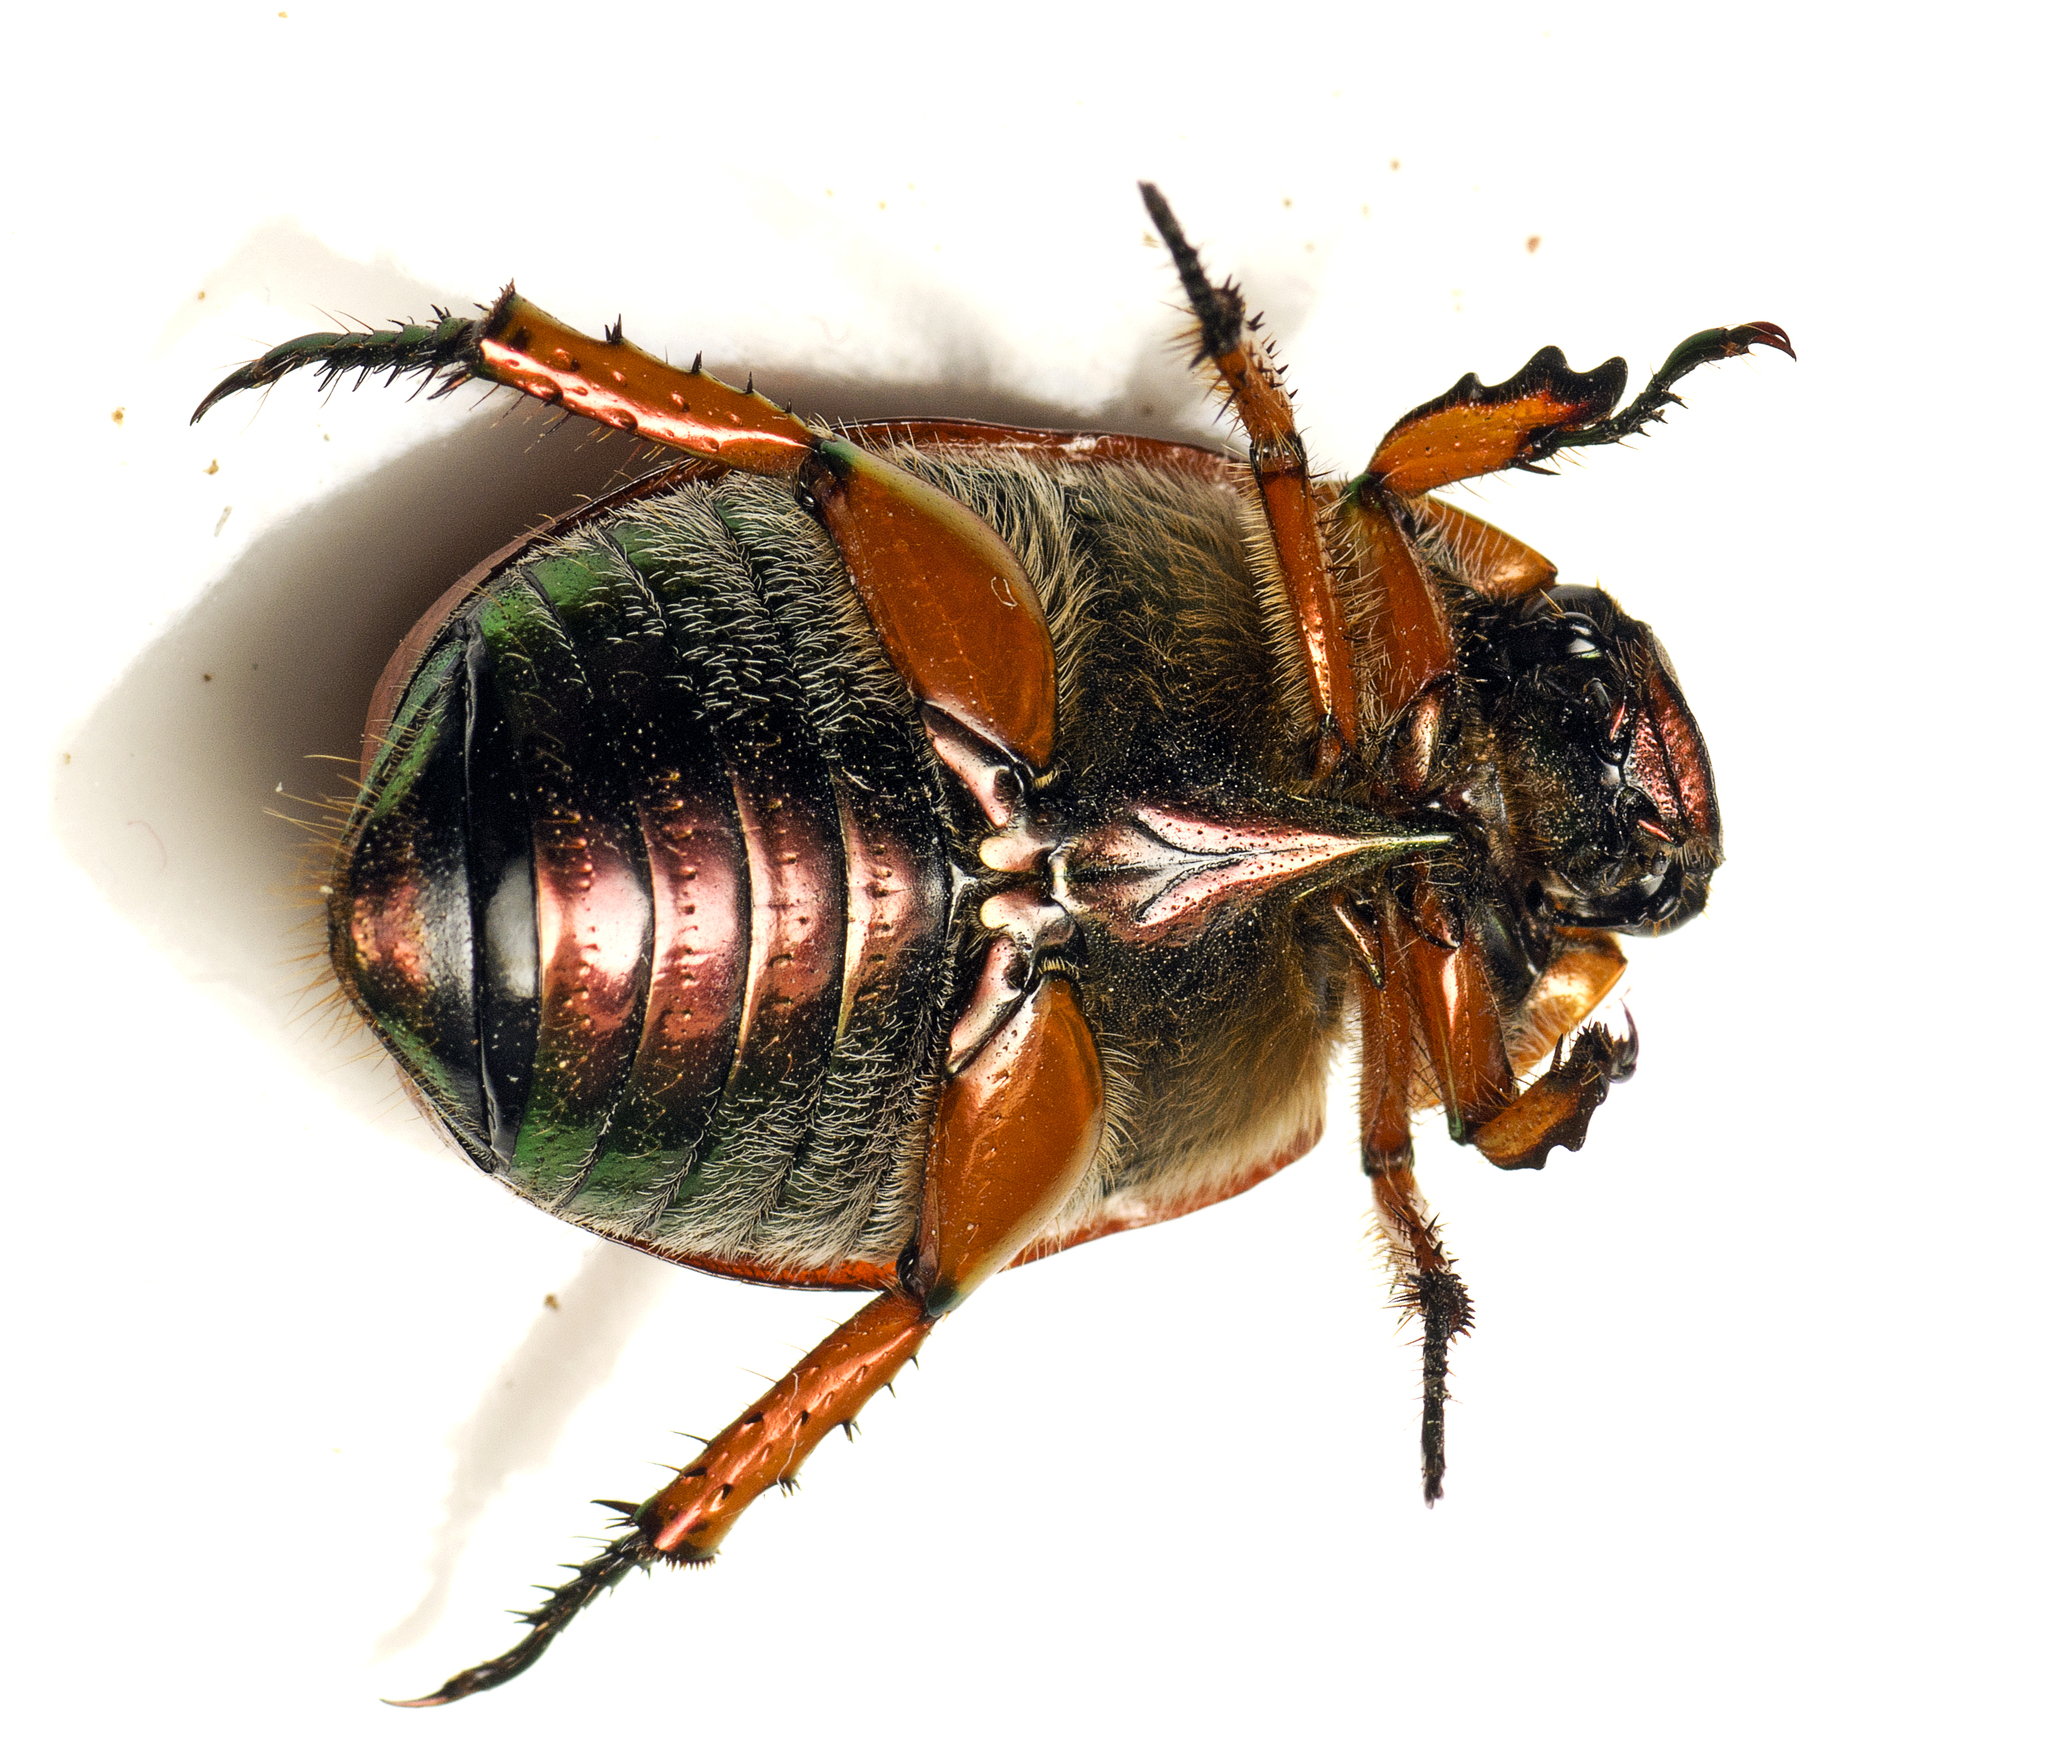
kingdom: Animalia
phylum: Arthropoda
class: Insecta
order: Coleoptera
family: Scarabaeidae
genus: Anoplognathus
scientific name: Anoplognathus brunnipennis
